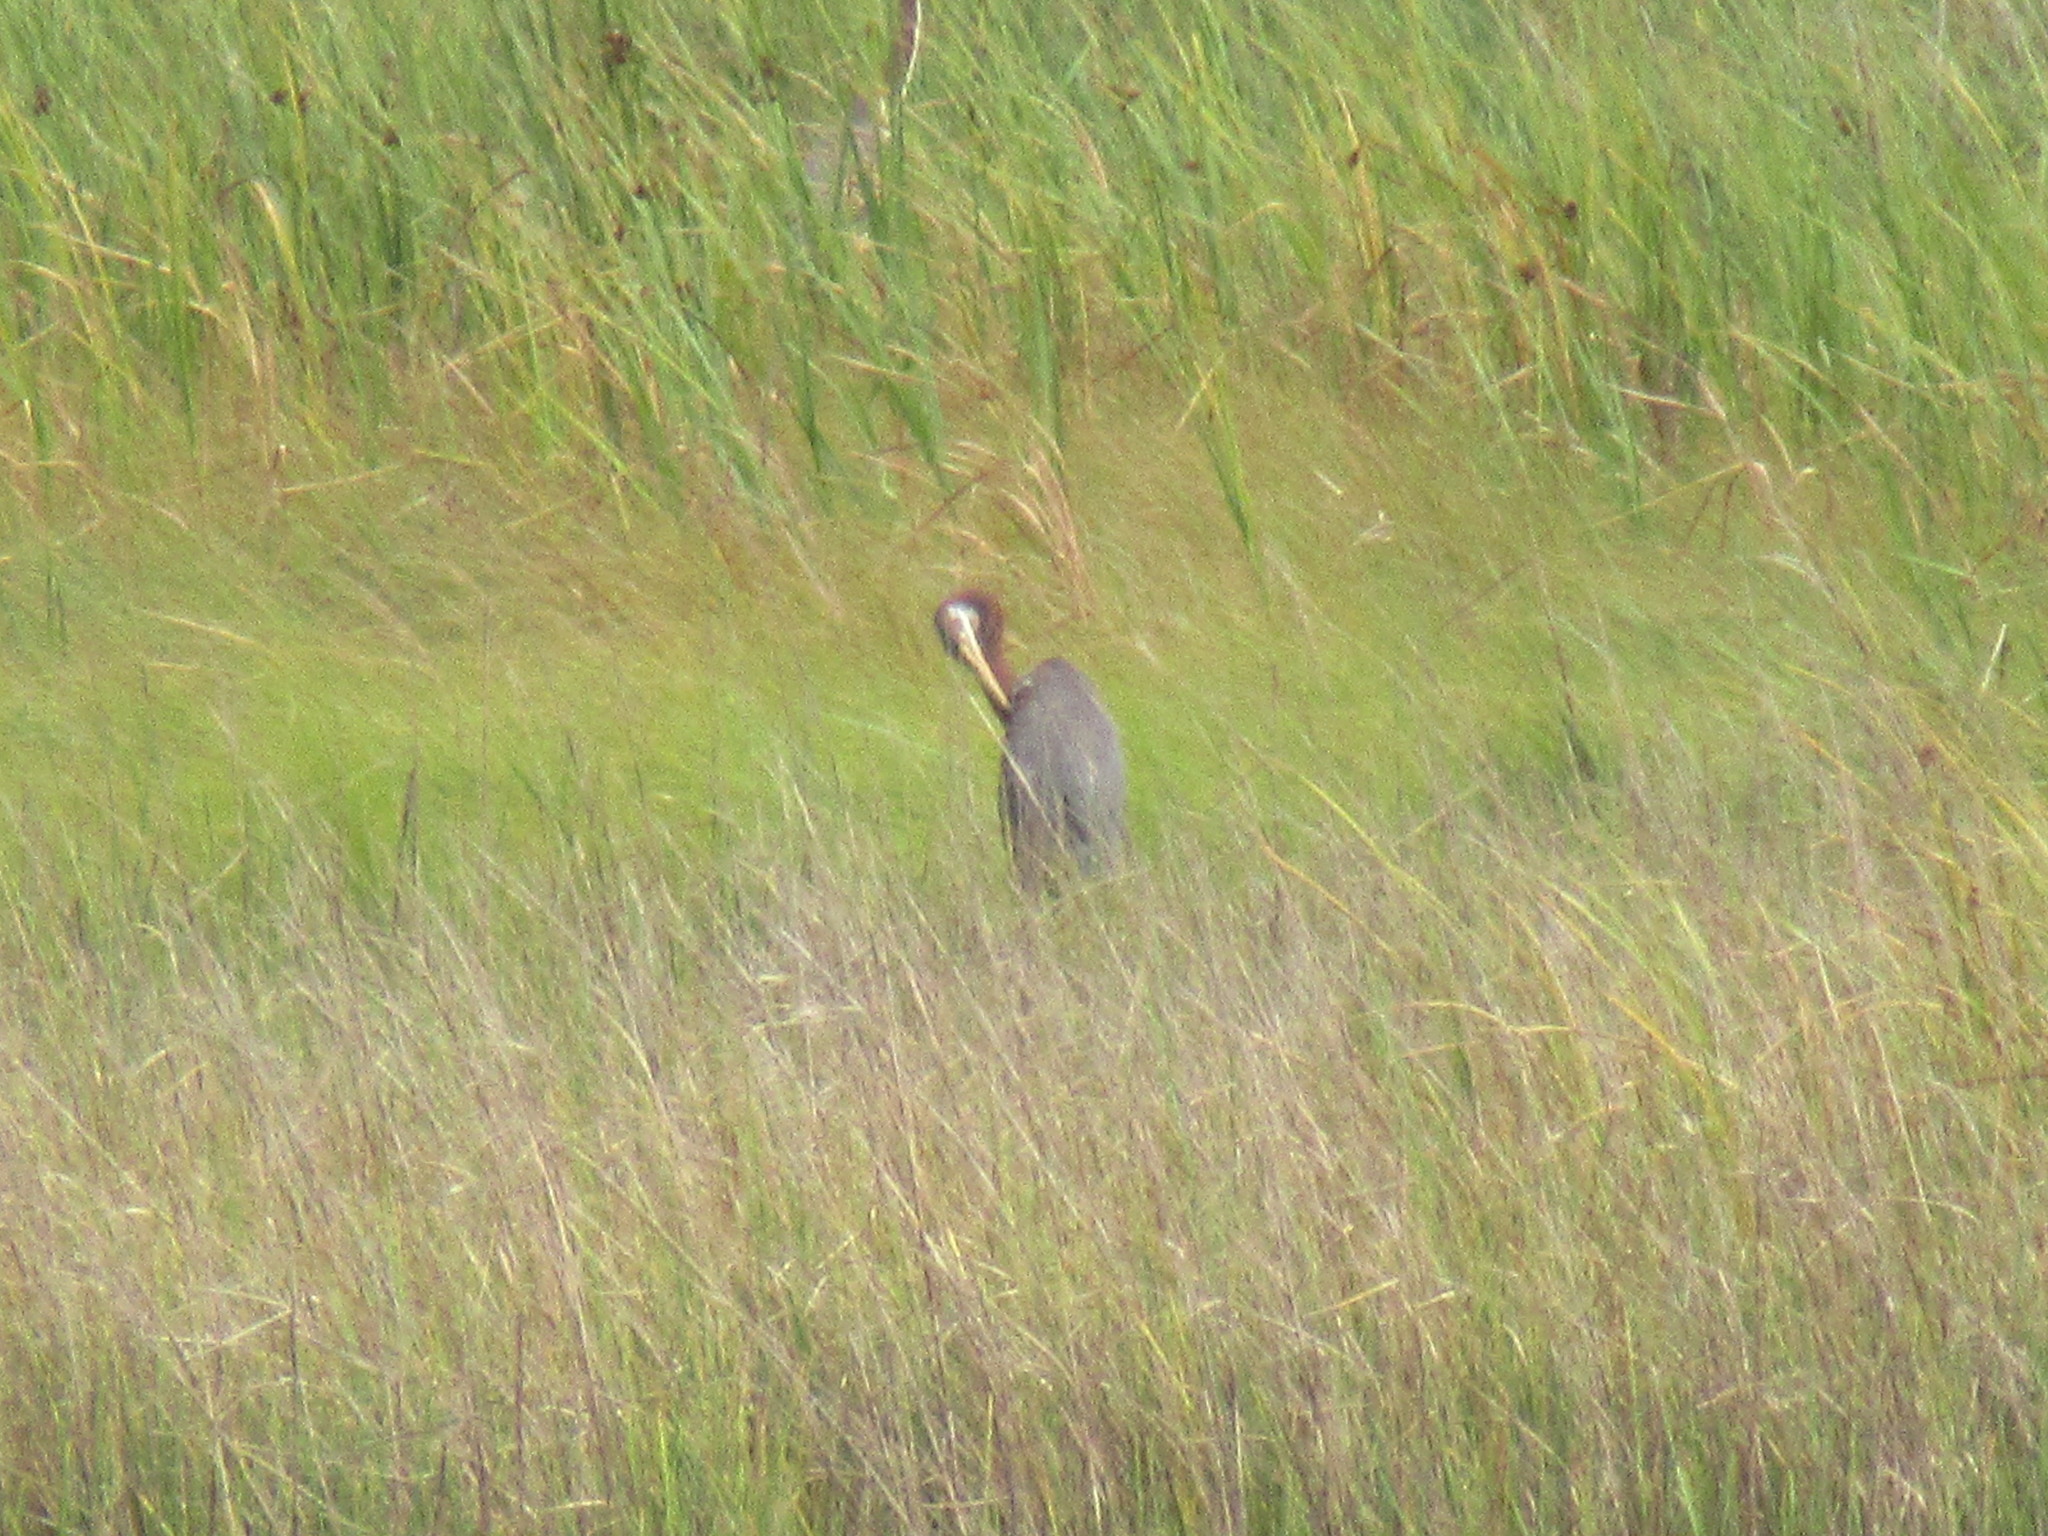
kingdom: Animalia
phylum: Chordata
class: Aves
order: Pelecaniformes
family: Ardeidae
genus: Egretta
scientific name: Egretta tricolor
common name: Tricolored heron
